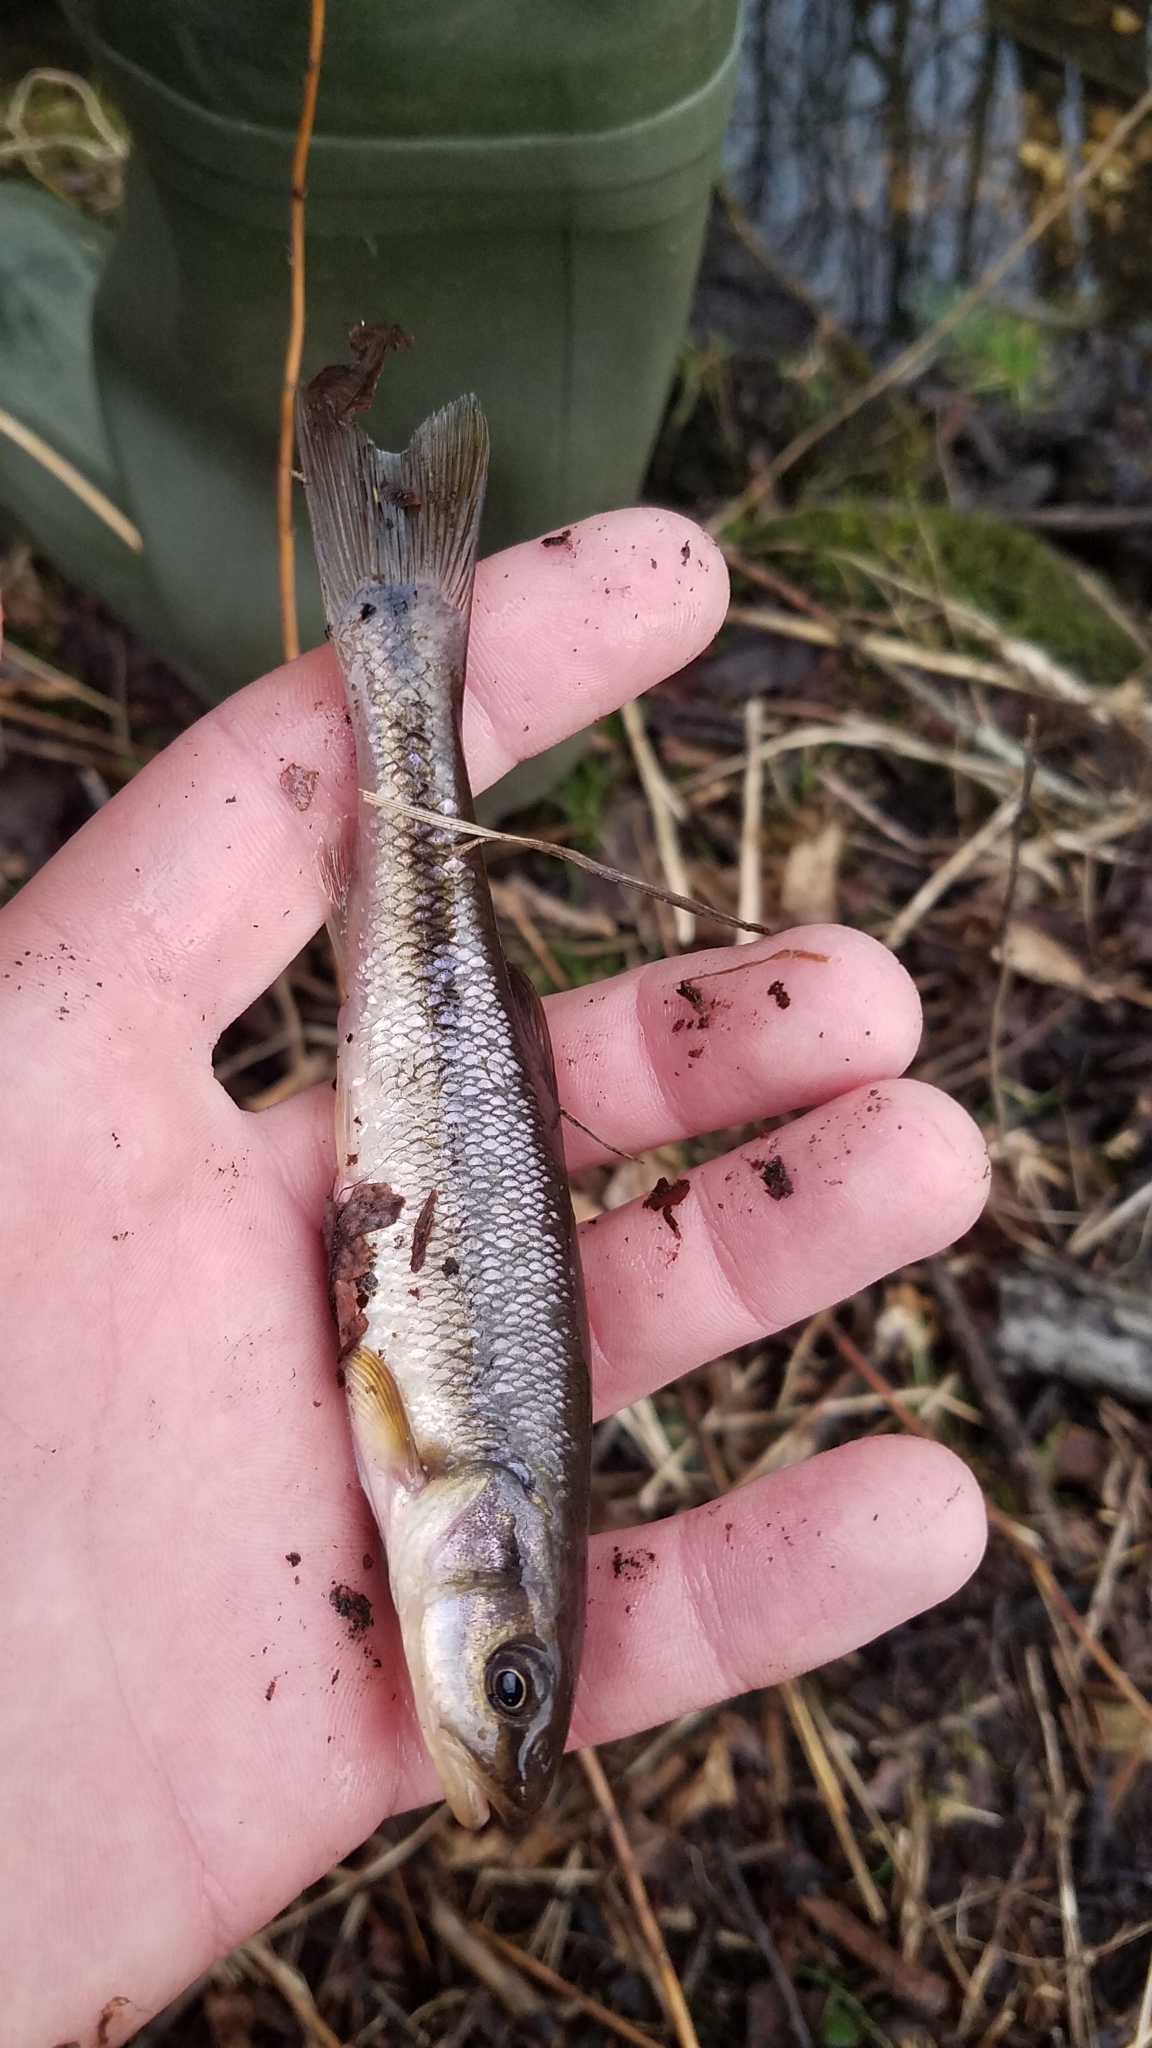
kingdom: Animalia
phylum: Chordata
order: Cypriniformes
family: Cyprinidae
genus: Semotilus
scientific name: Semotilus atromaculatus
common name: Creek chub
